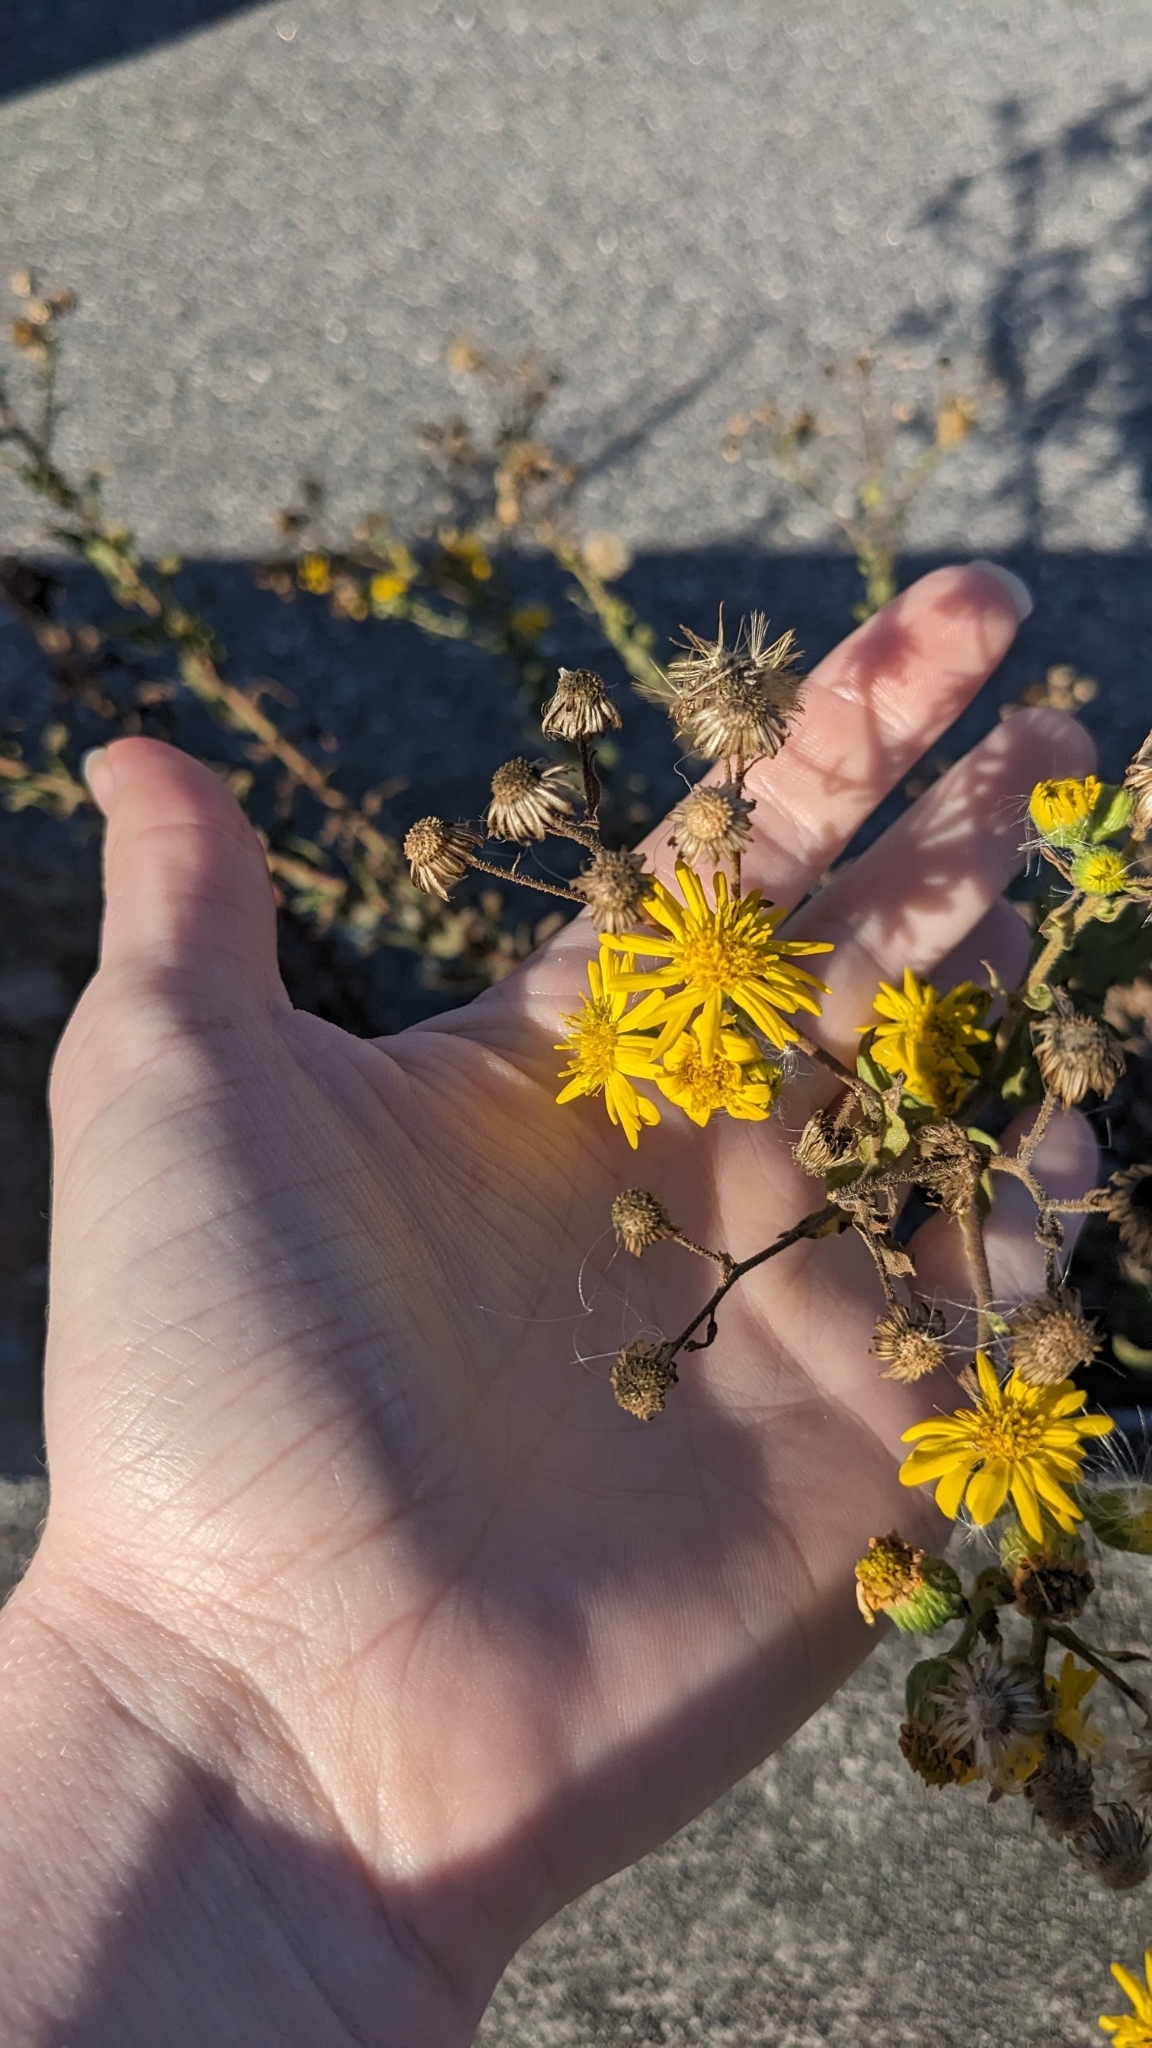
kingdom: Plantae
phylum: Tracheophyta
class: Magnoliopsida
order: Asterales
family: Asteraceae
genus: Heterotheca
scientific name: Heterotheca subaxillaris
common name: Camphorweed
